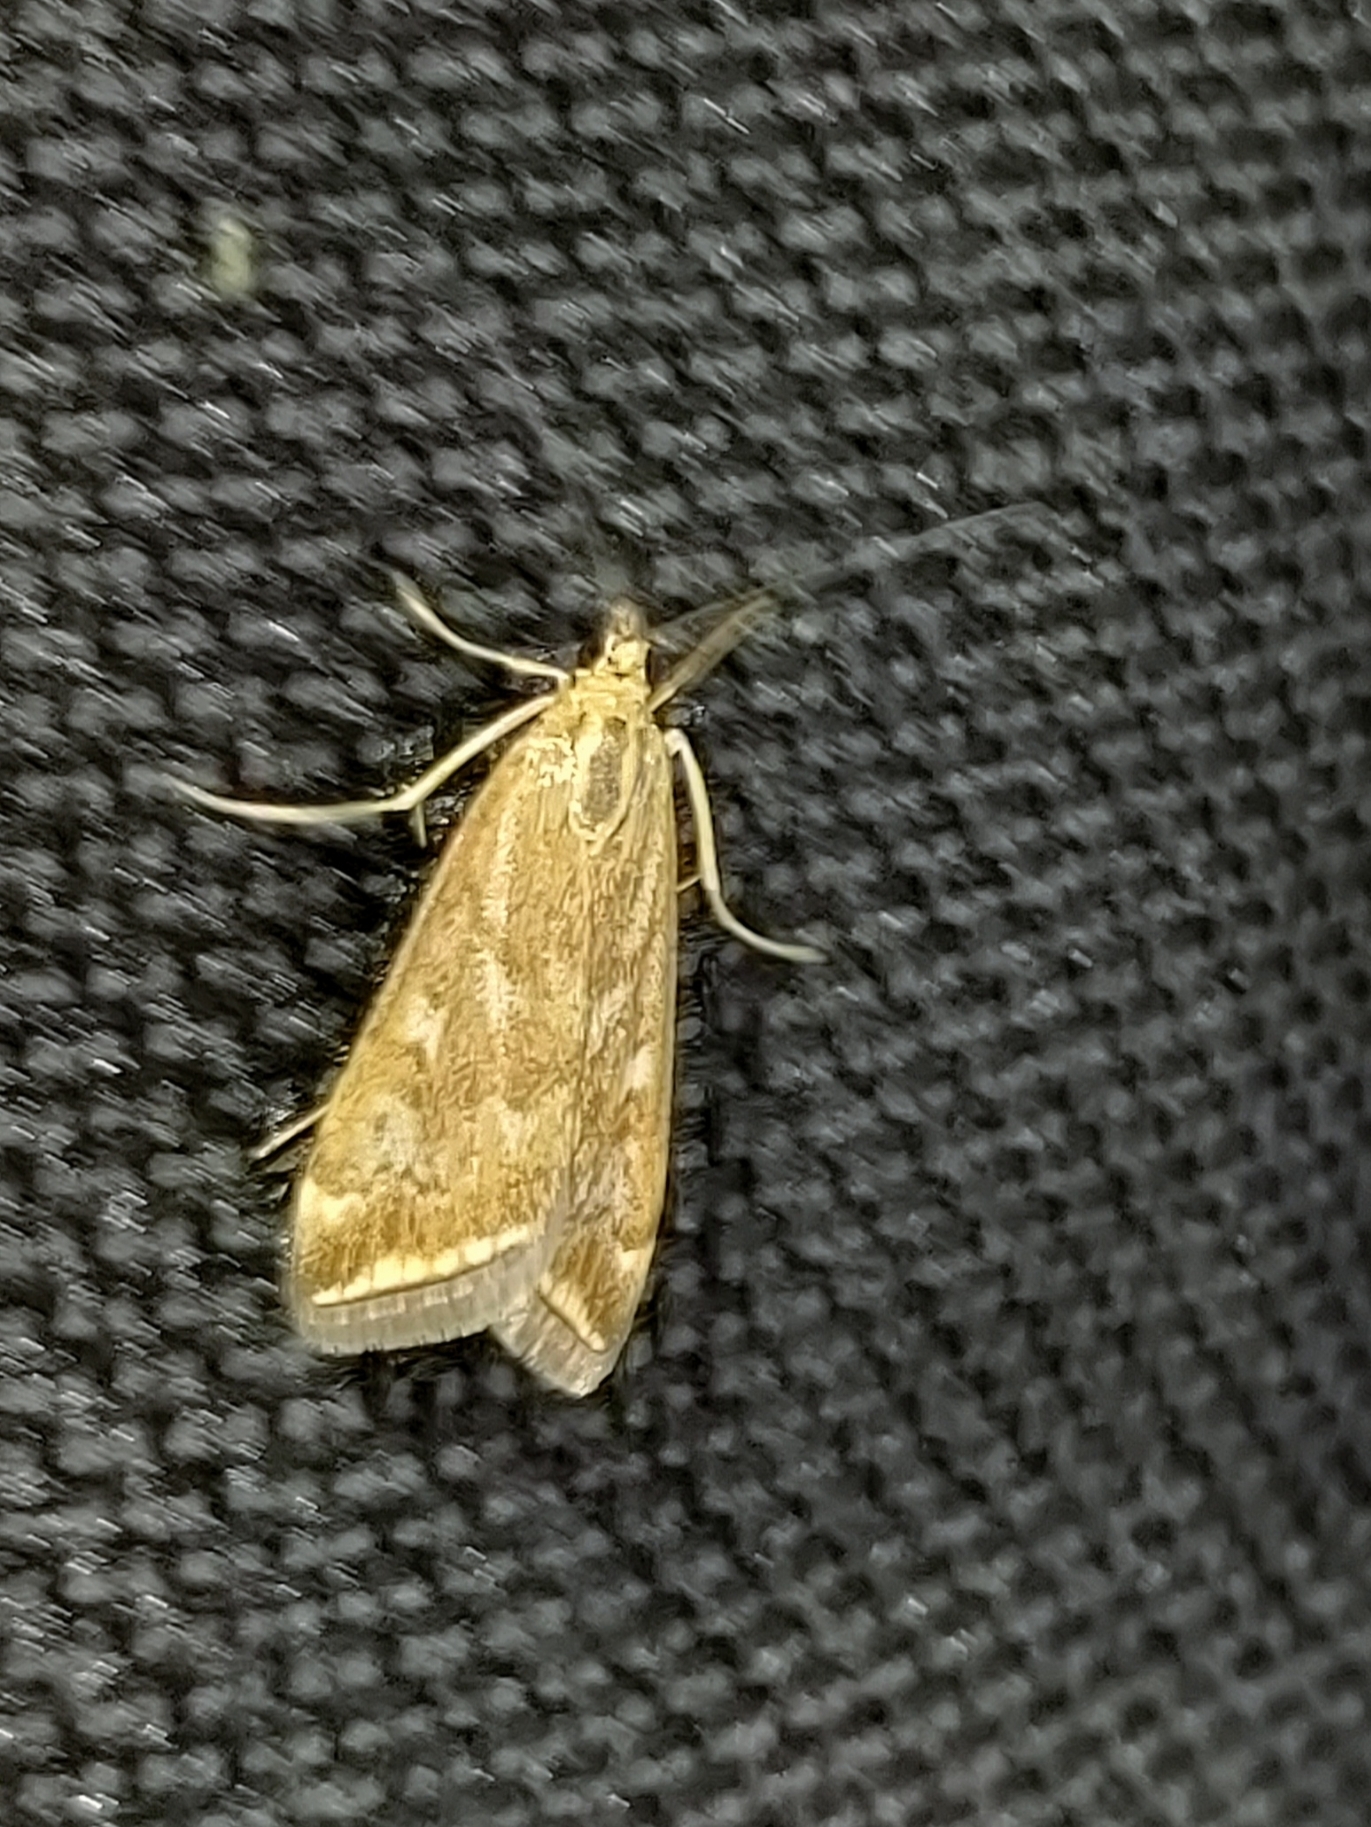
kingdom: Animalia
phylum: Arthropoda
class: Insecta
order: Lepidoptera
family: Crambidae
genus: Loxostege
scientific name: Loxostege sticticalis
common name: Crambid moth
